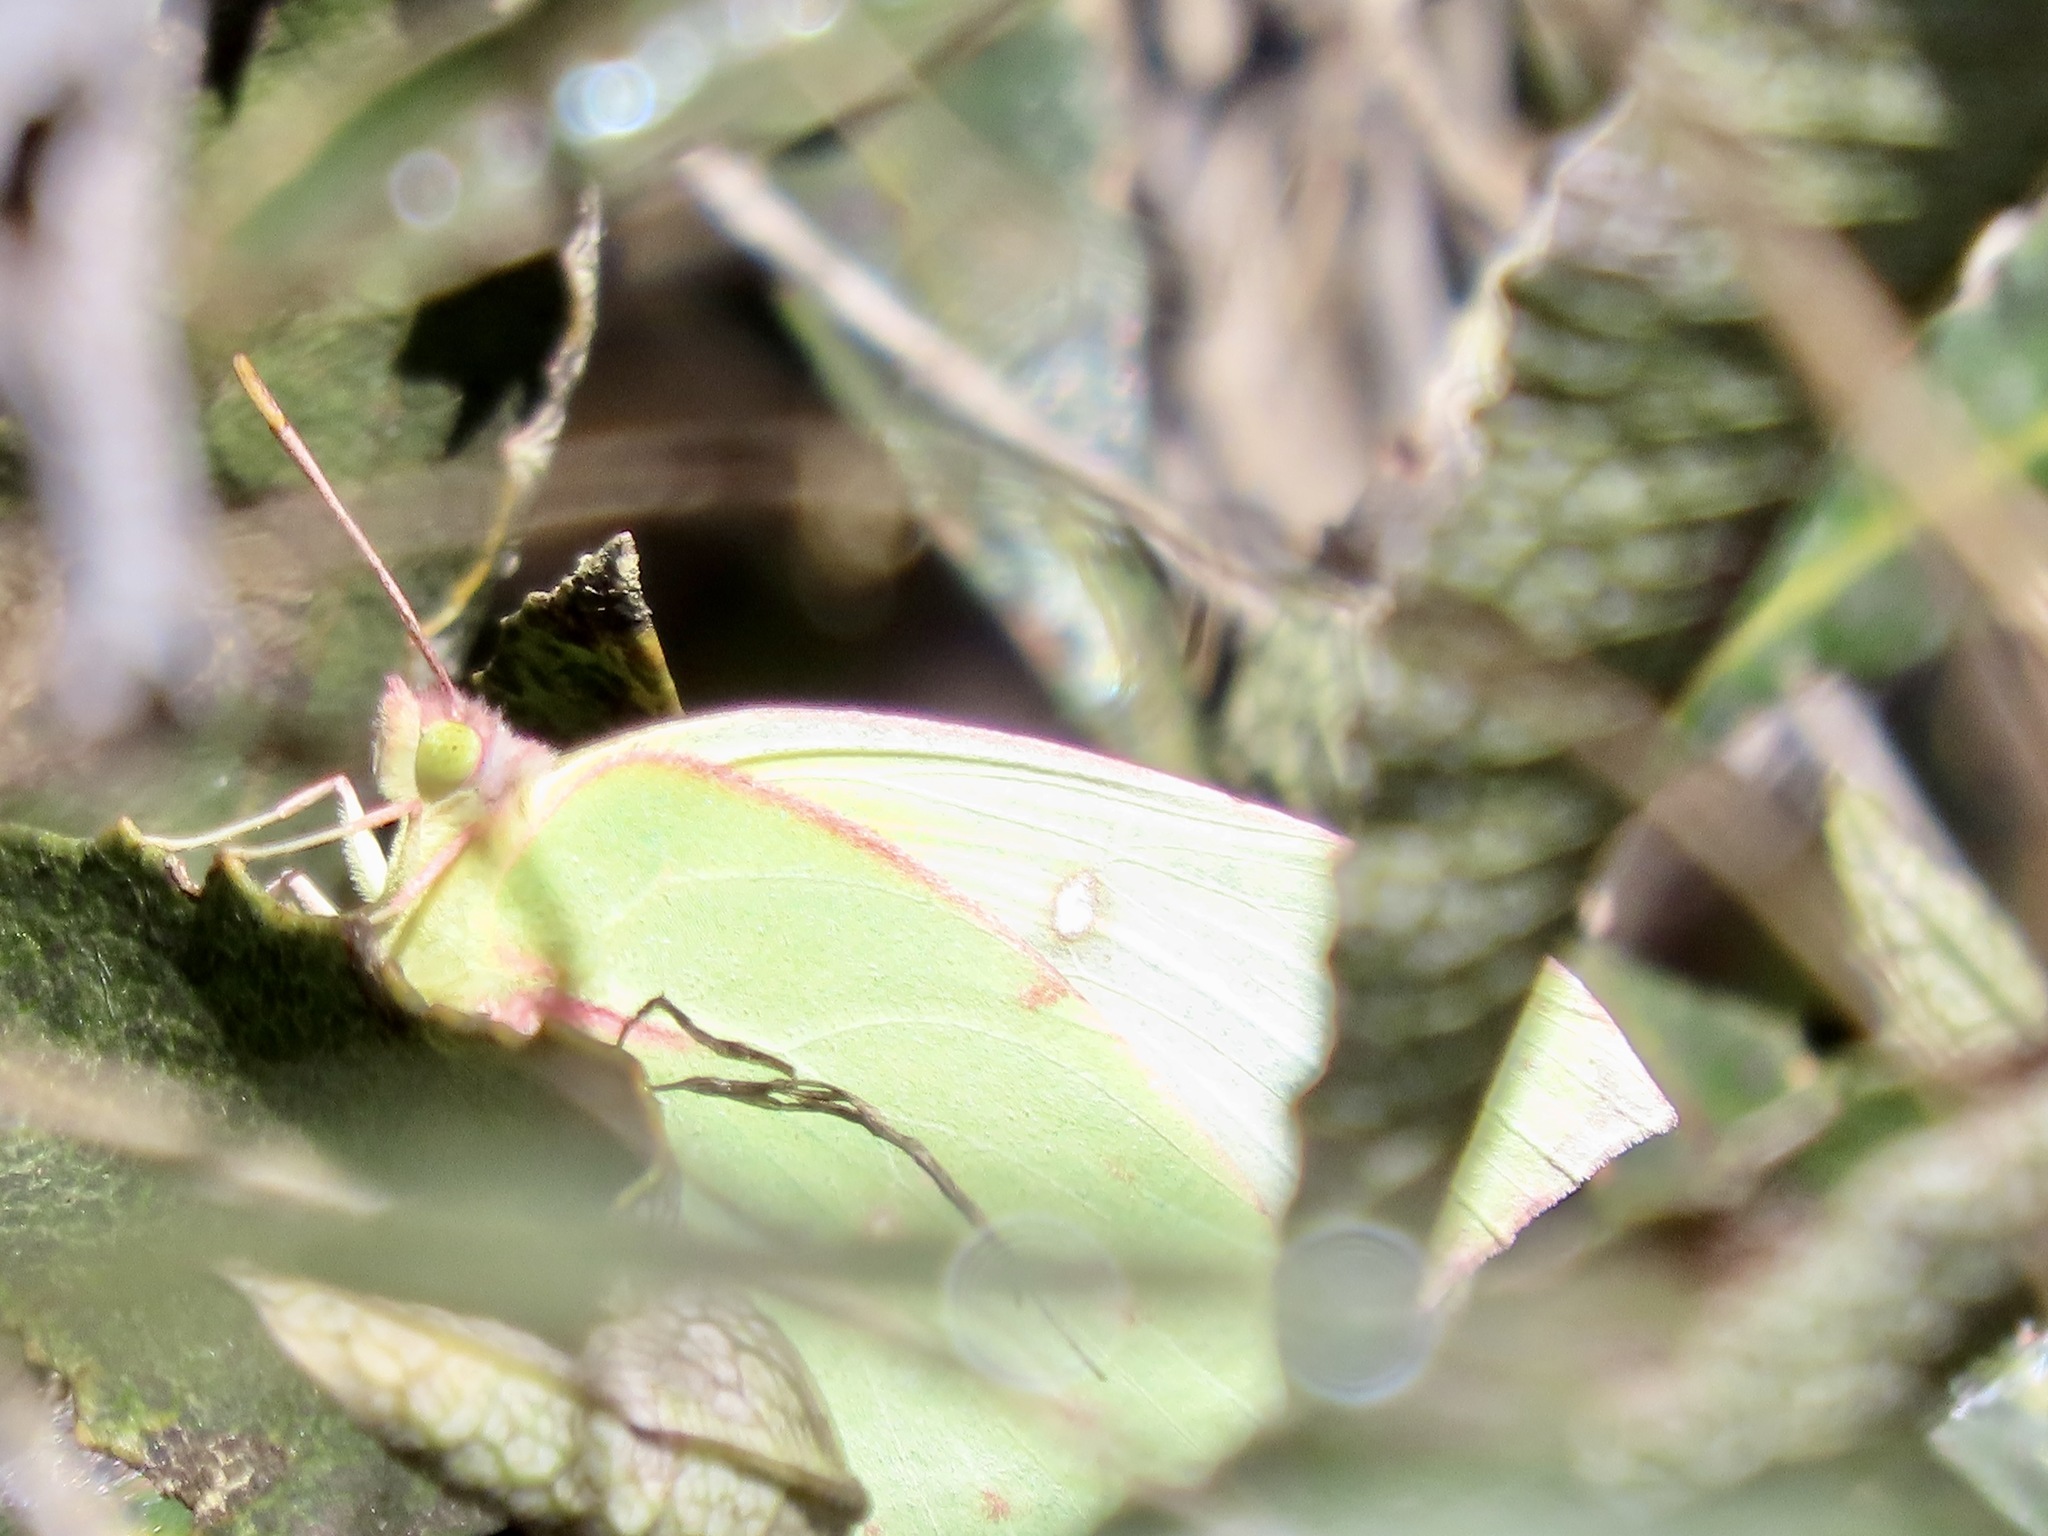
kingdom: Animalia
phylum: Arthropoda
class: Insecta
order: Lepidoptera
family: Pieridae
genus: Zerene
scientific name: Zerene eurydice
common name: California dogface
